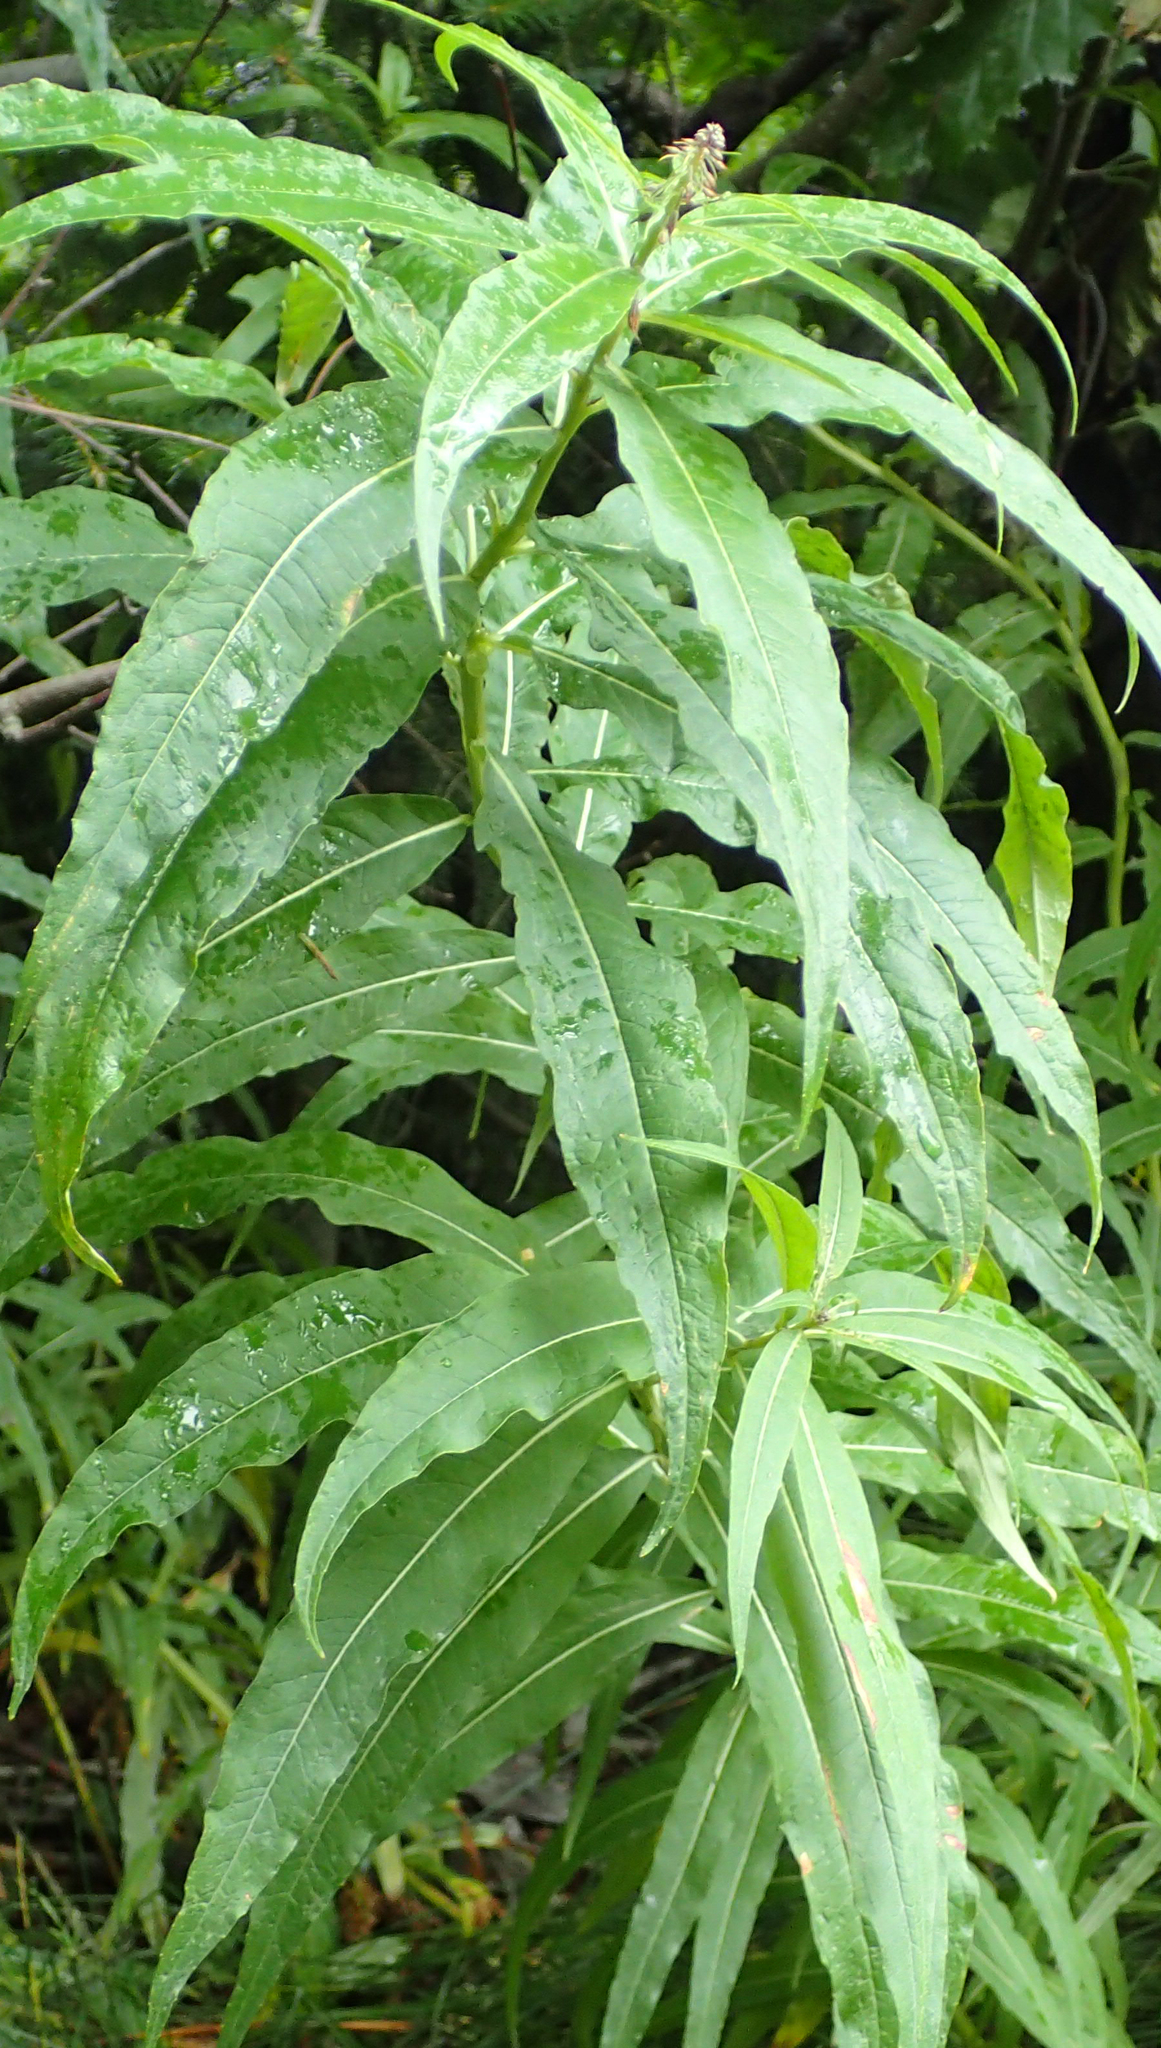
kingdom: Plantae
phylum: Tracheophyta
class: Magnoliopsida
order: Myrtales
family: Onagraceae
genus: Chamaenerion
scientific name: Chamaenerion angustifolium
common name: Fireweed
